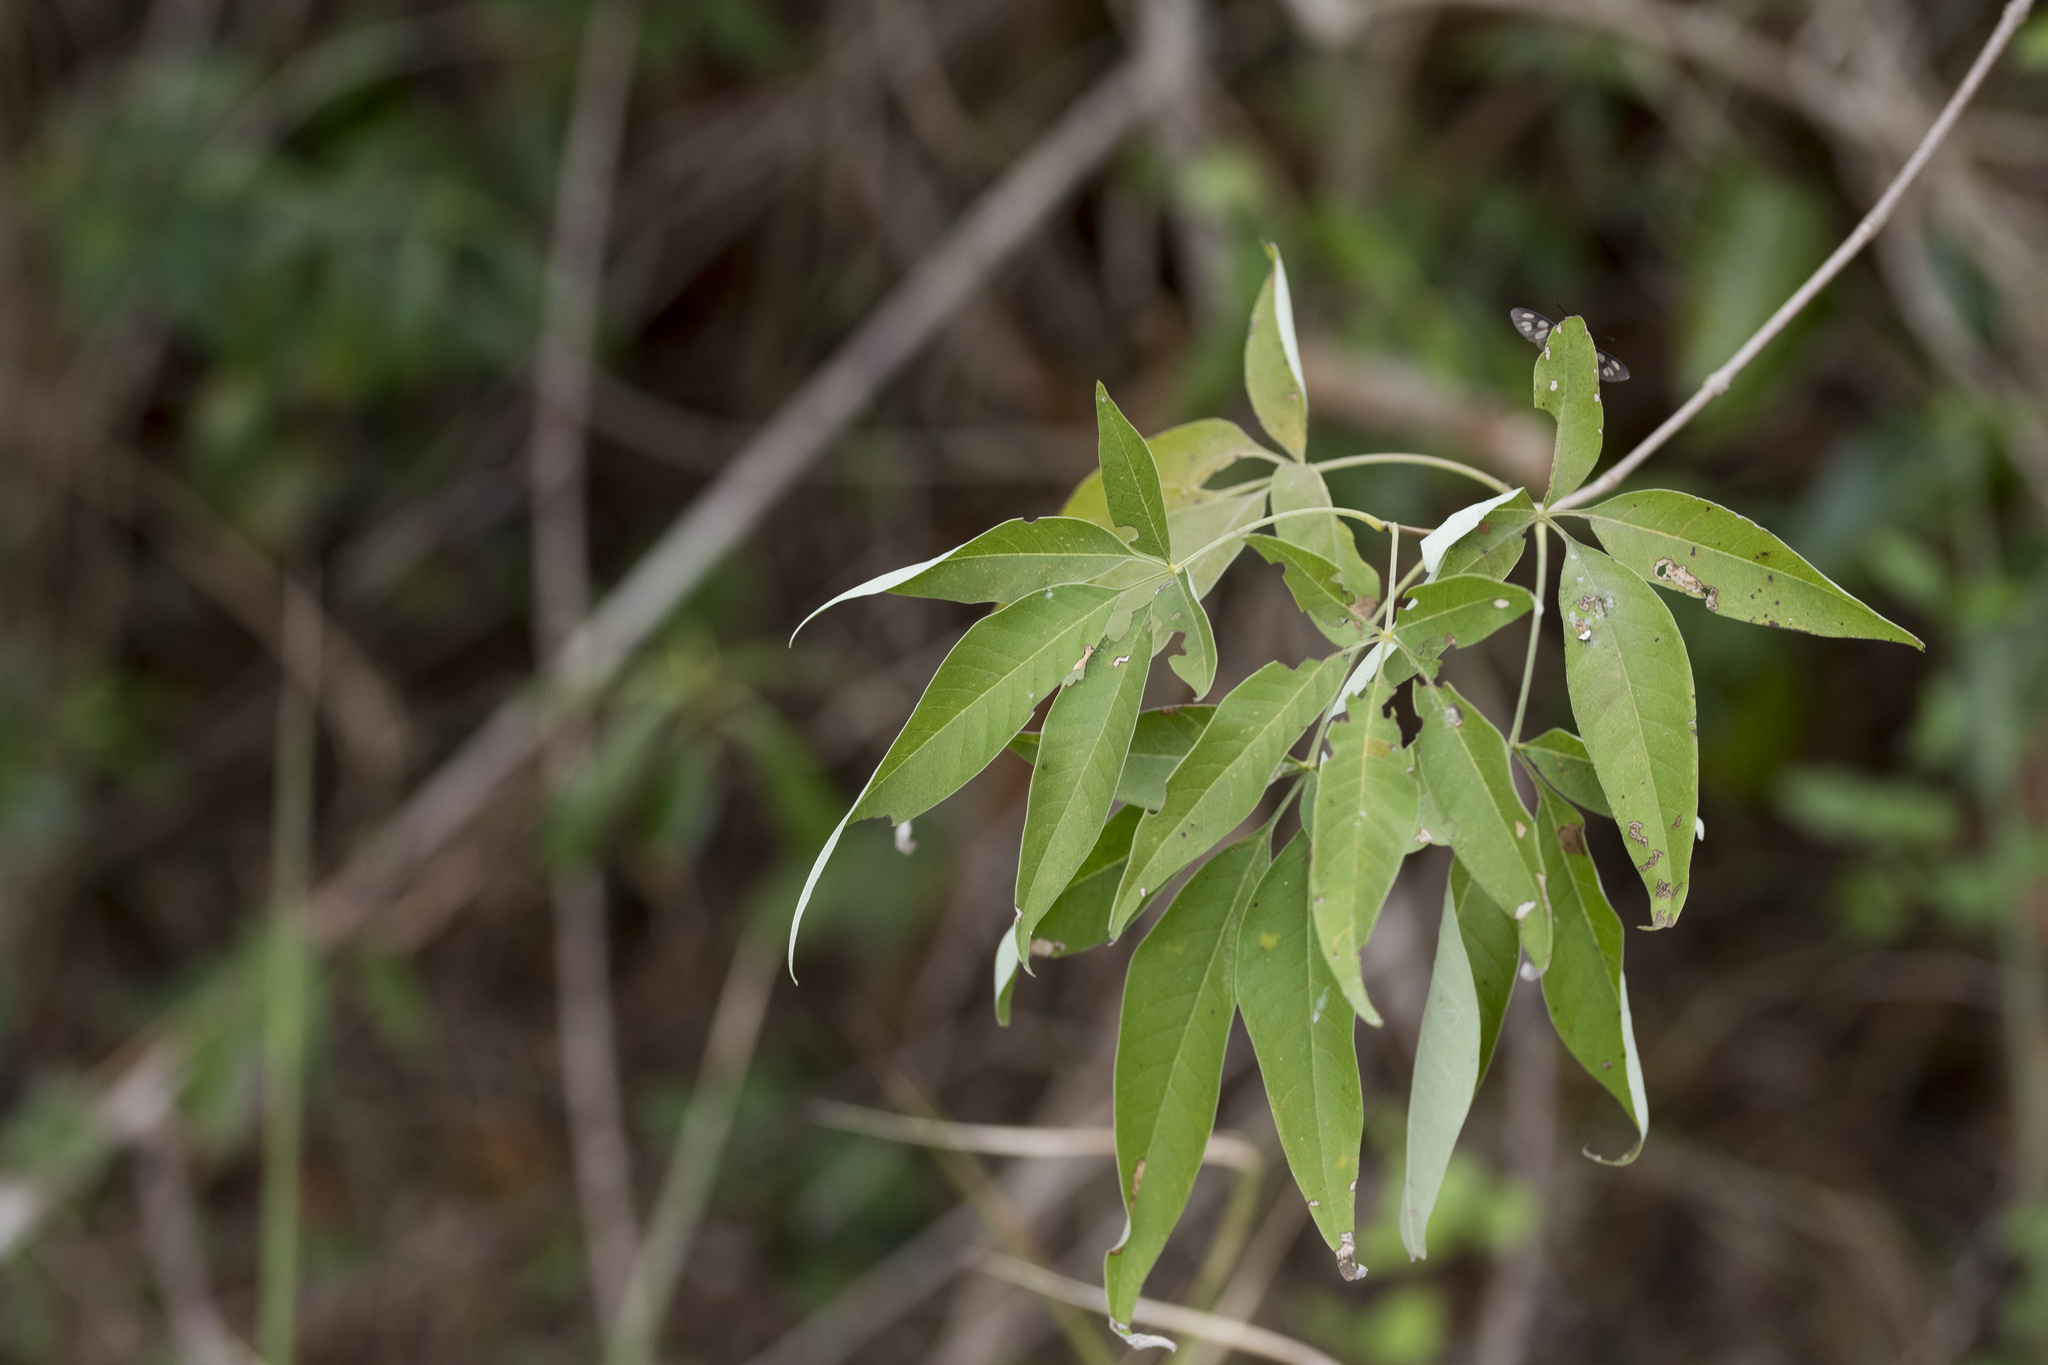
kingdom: Plantae
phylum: Tracheophyta
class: Magnoliopsida
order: Lamiales
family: Lamiaceae
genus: Vitex
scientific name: Vitex negundo
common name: Chinese chastetree
